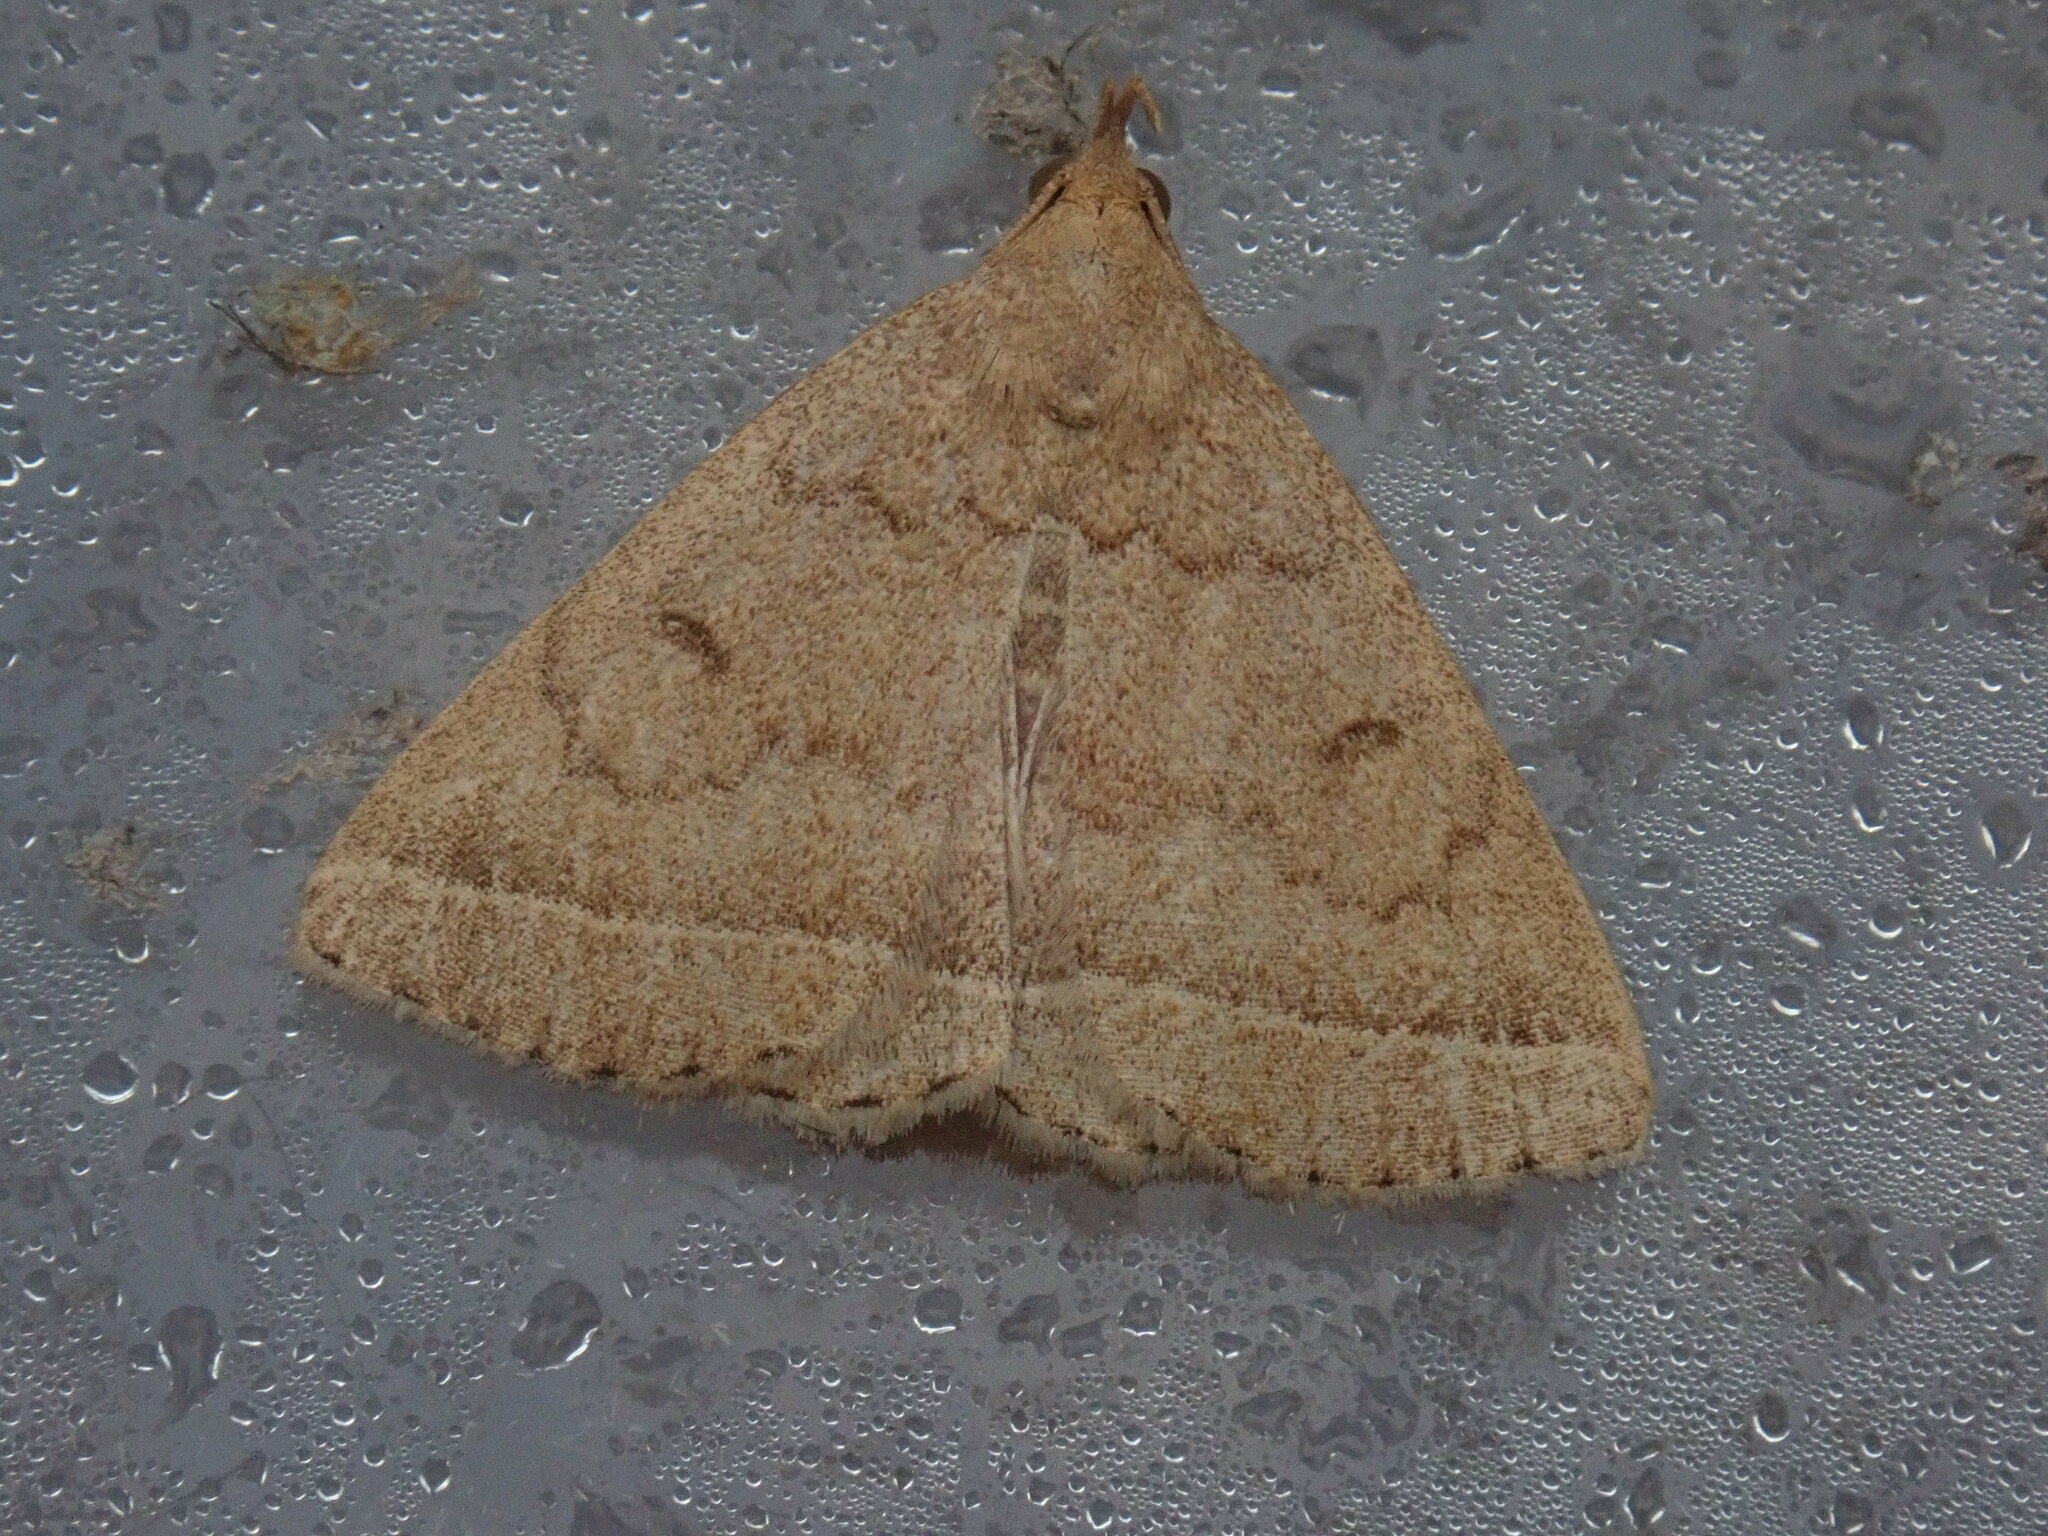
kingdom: Animalia
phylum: Arthropoda
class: Insecta
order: Lepidoptera
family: Erebidae
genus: Zanclognatha
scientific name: Zanclognatha jacchusalis
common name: Yellowish zanclognatha
